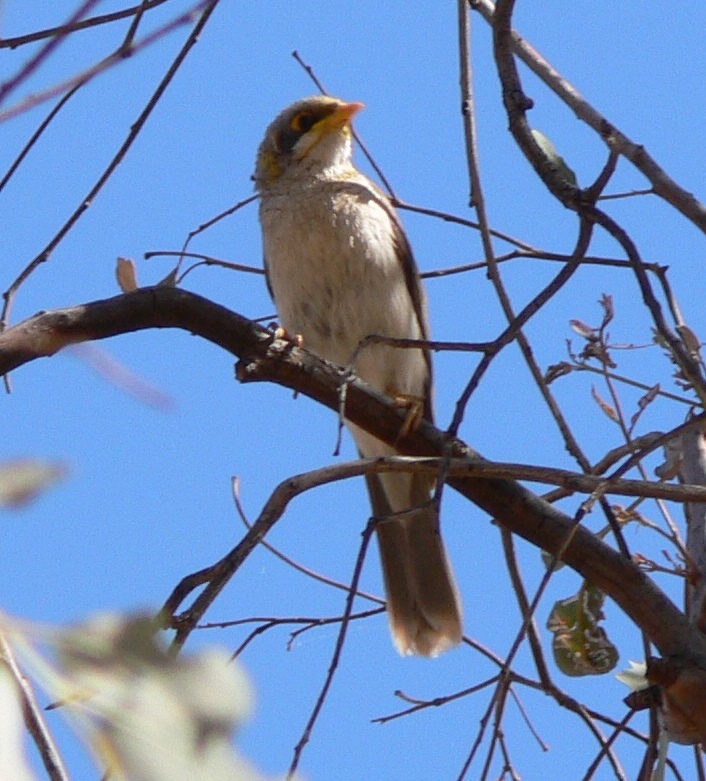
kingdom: Animalia
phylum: Chordata
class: Aves
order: Passeriformes
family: Meliphagidae
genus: Manorina
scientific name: Manorina flavigula
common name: Yellow-throated miner
